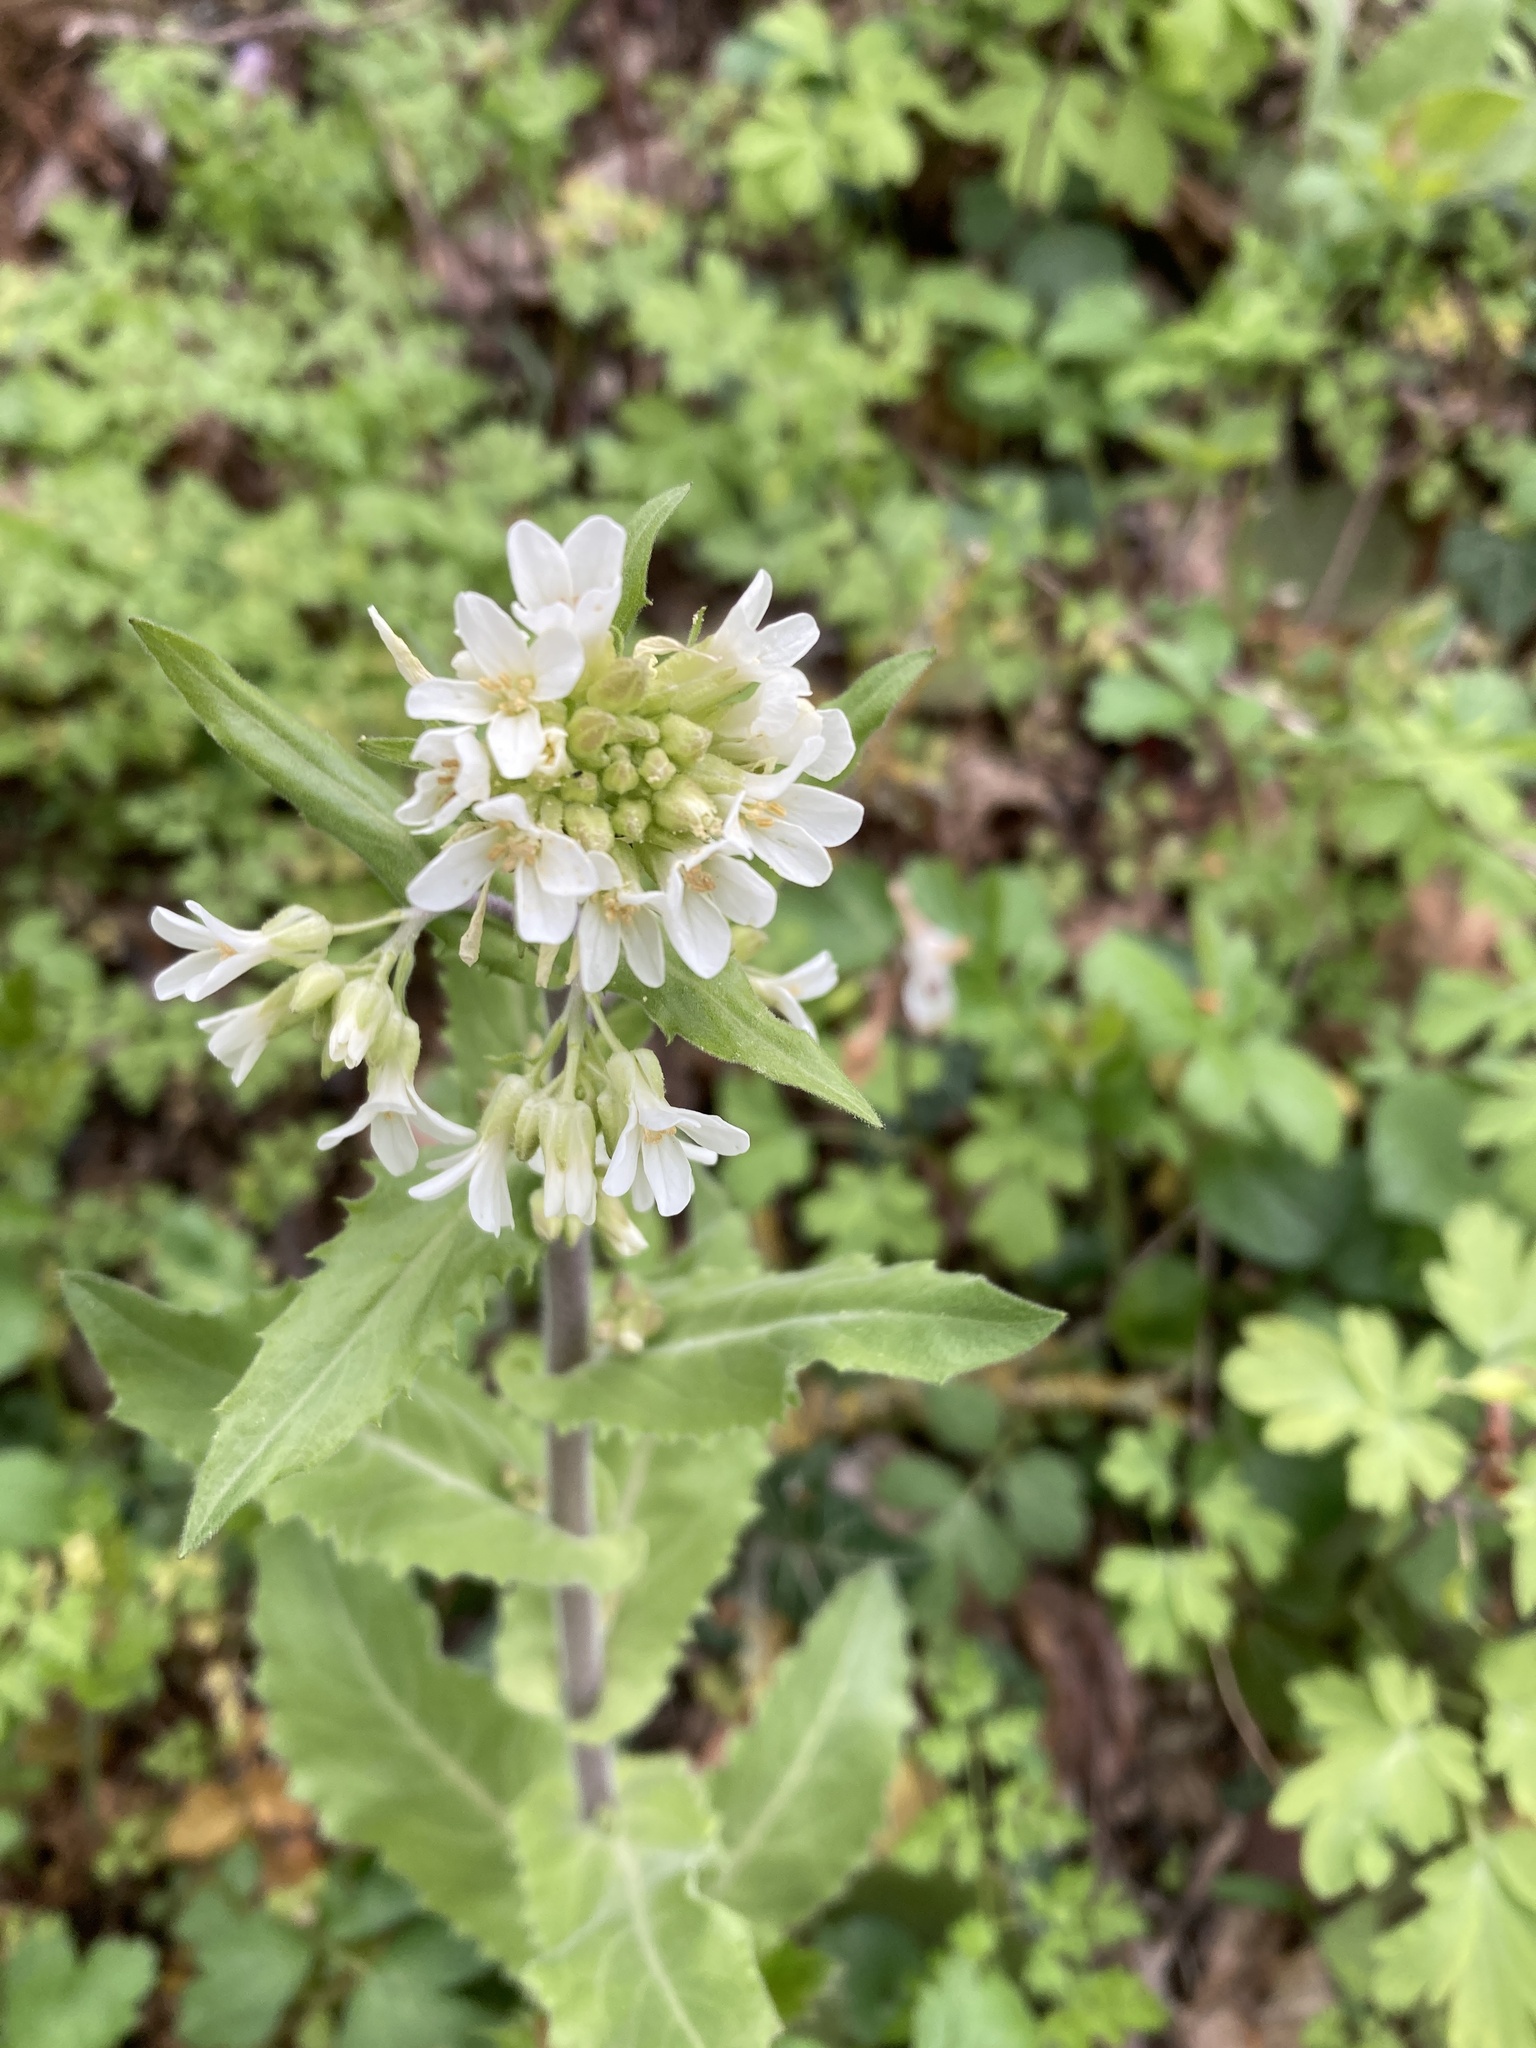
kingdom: Plantae
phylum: Tracheophyta
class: Magnoliopsida
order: Brassicales
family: Brassicaceae
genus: Pseudoturritis
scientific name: Pseudoturritis turrita
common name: Tower cress
